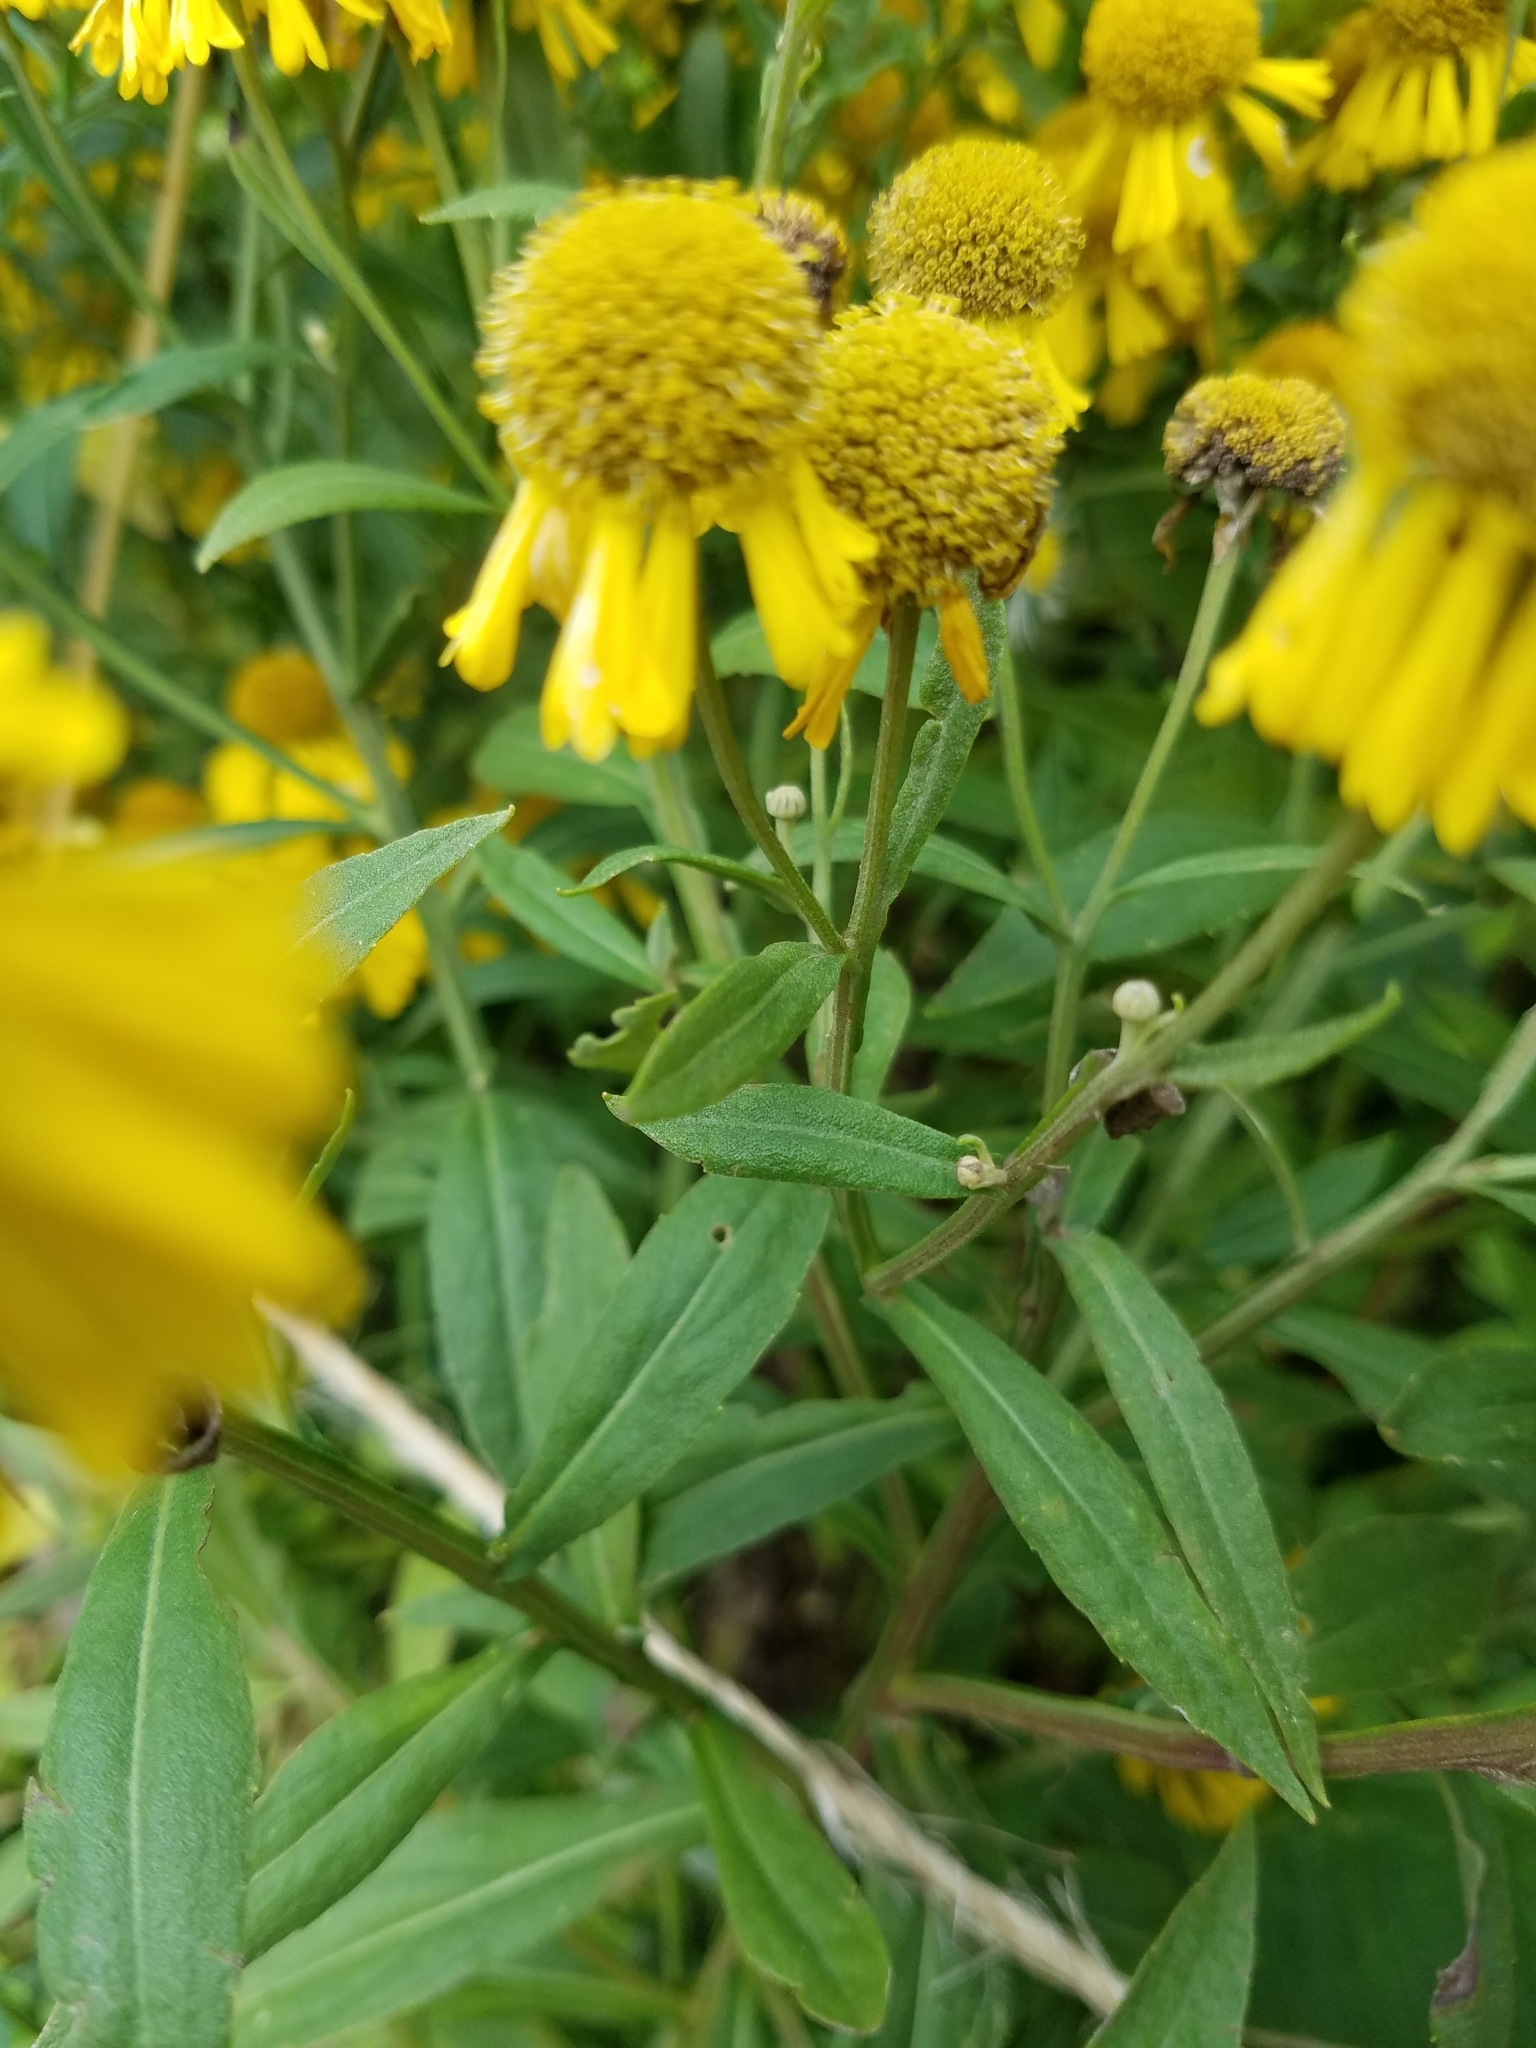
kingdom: Plantae
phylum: Tracheophyta
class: Magnoliopsida
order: Asterales
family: Asteraceae
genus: Helenium
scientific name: Helenium autumnale
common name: Sneezeweed
